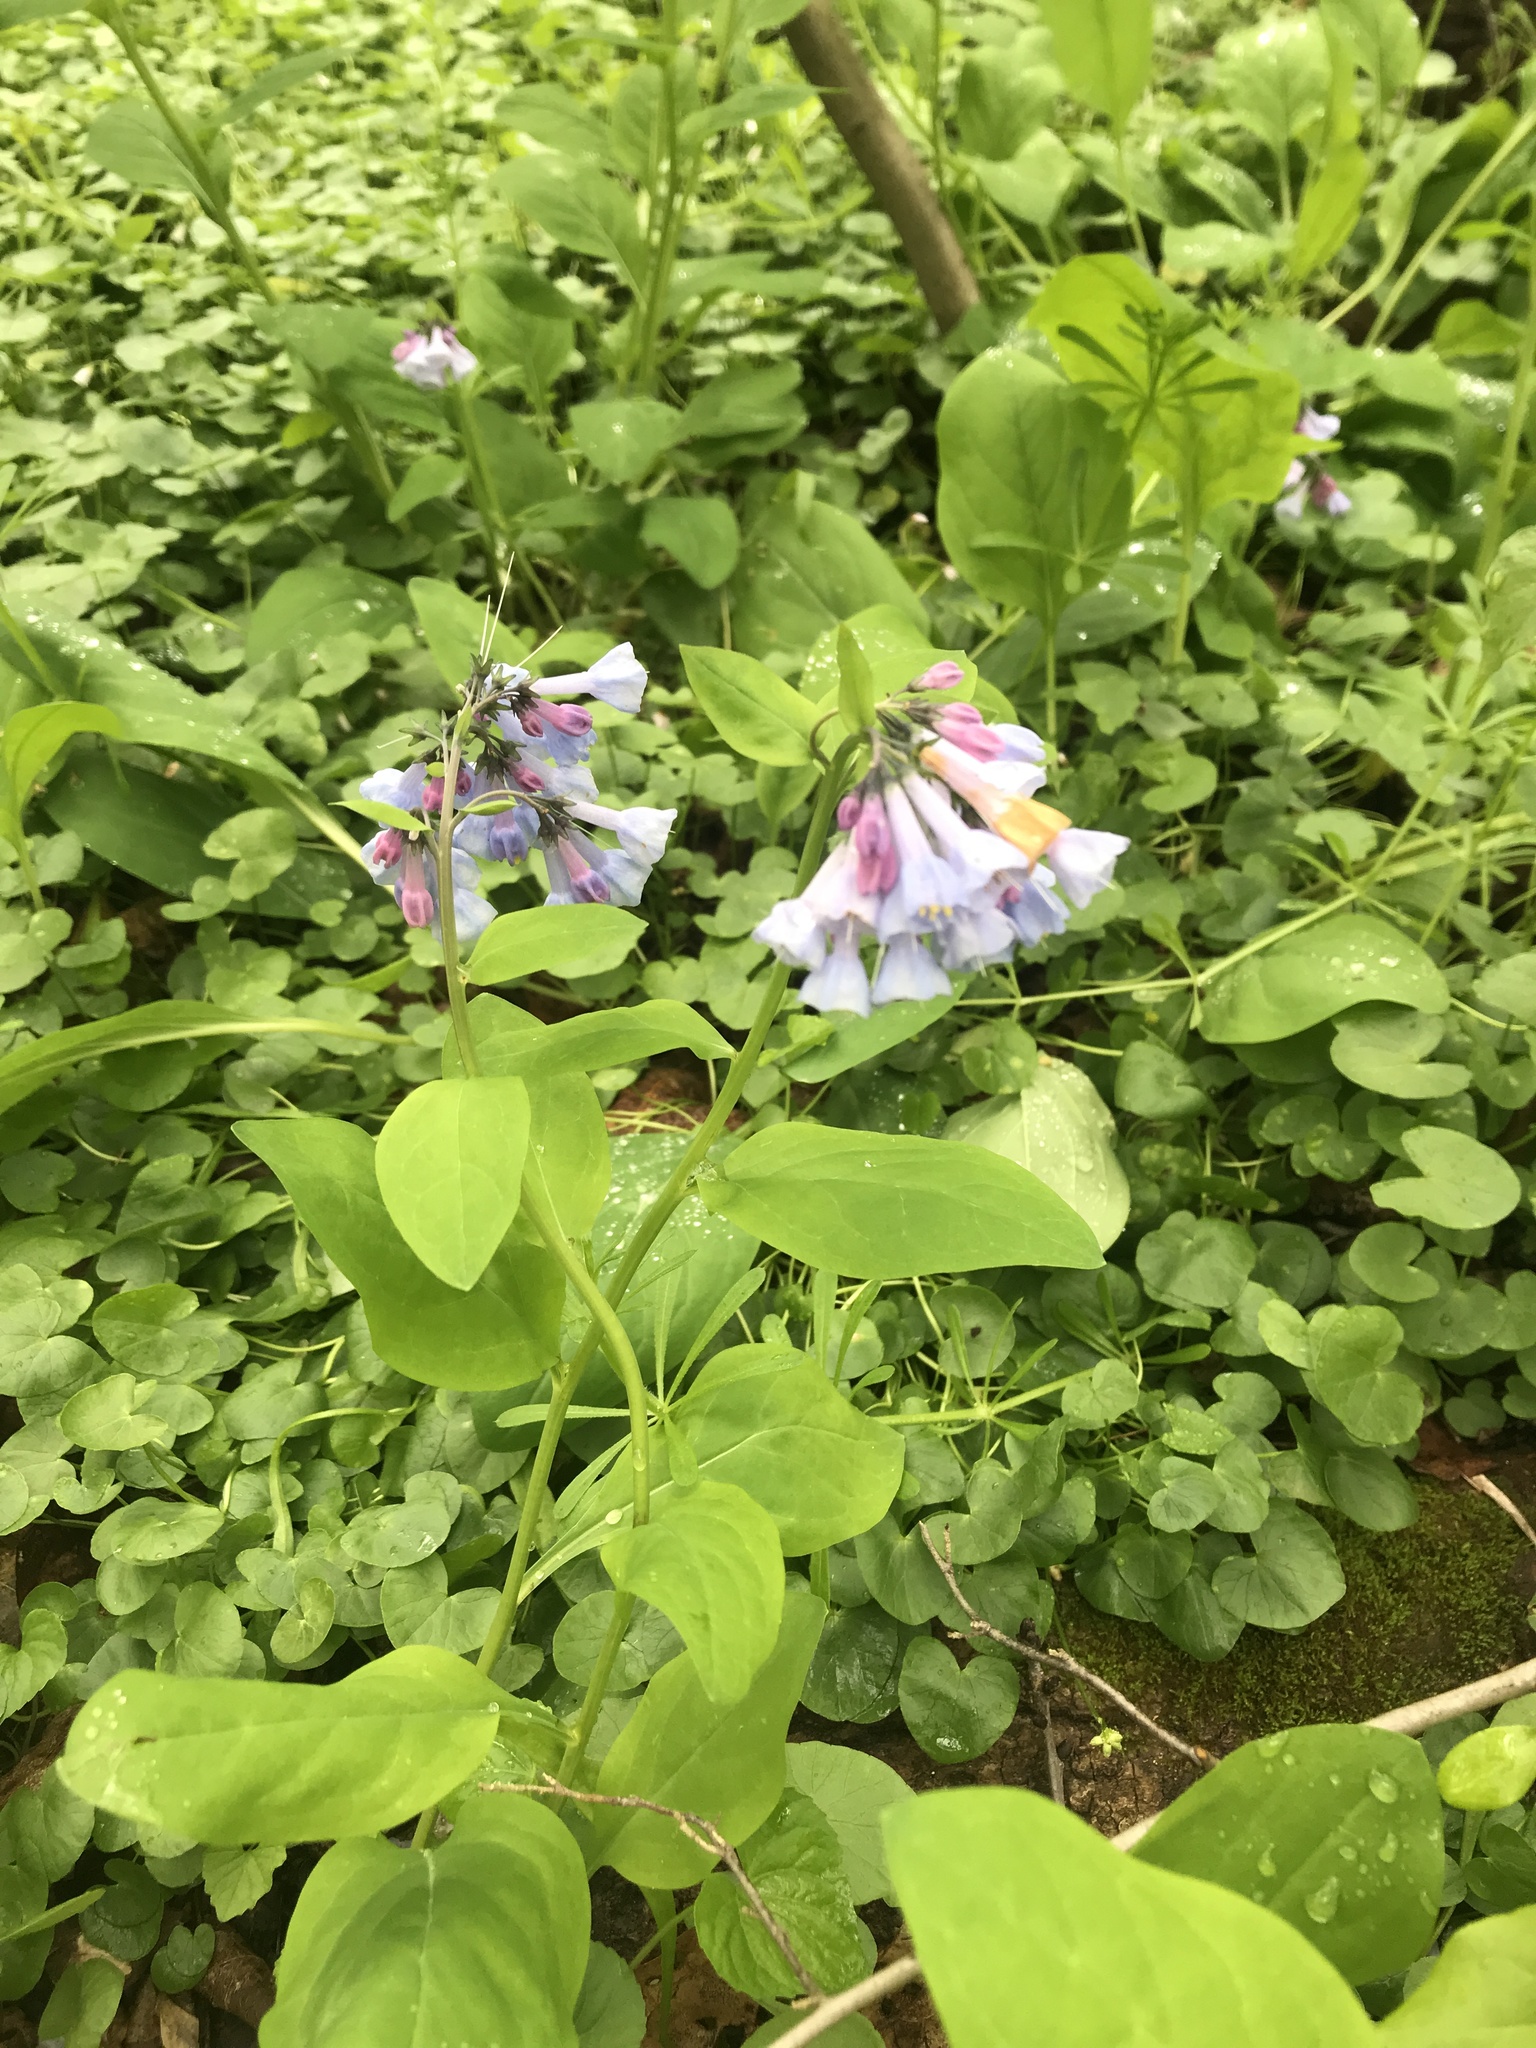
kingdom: Plantae
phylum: Tracheophyta
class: Magnoliopsida
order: Boraginales
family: Boraginaceae
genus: Mertensia
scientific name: Mertensia virginica
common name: Virginia bluebells
